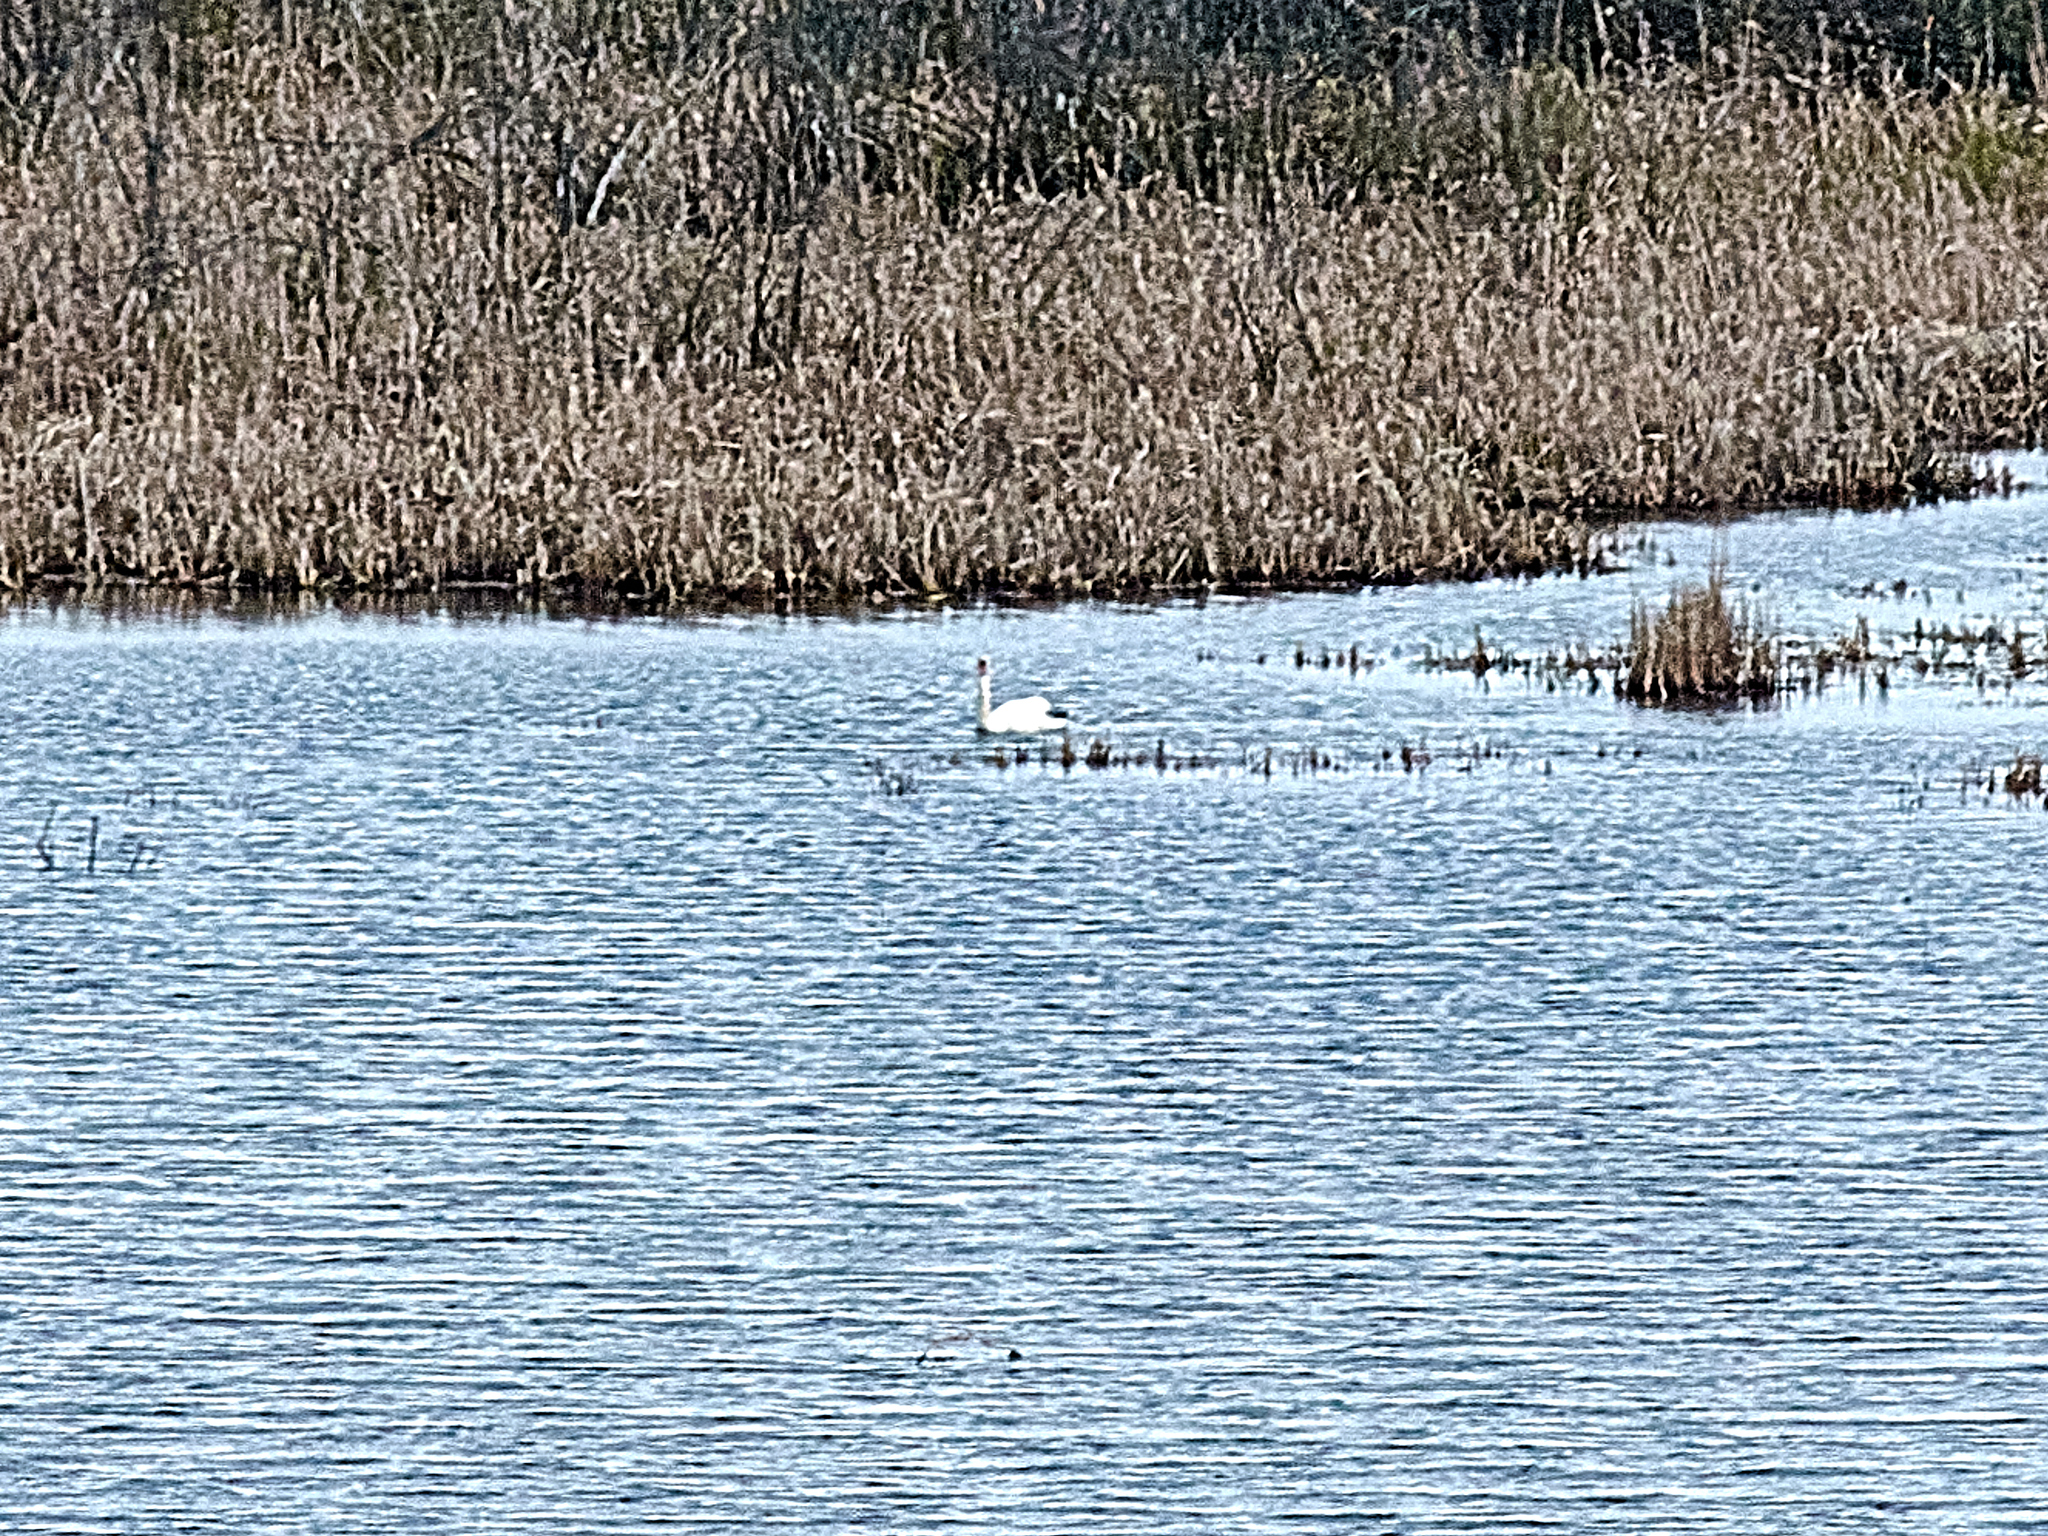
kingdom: Animalia
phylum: Chordata
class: Aves
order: Anseriformes
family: Anatidae
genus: Cygnus
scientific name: Cygnus olor
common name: Mute swan
